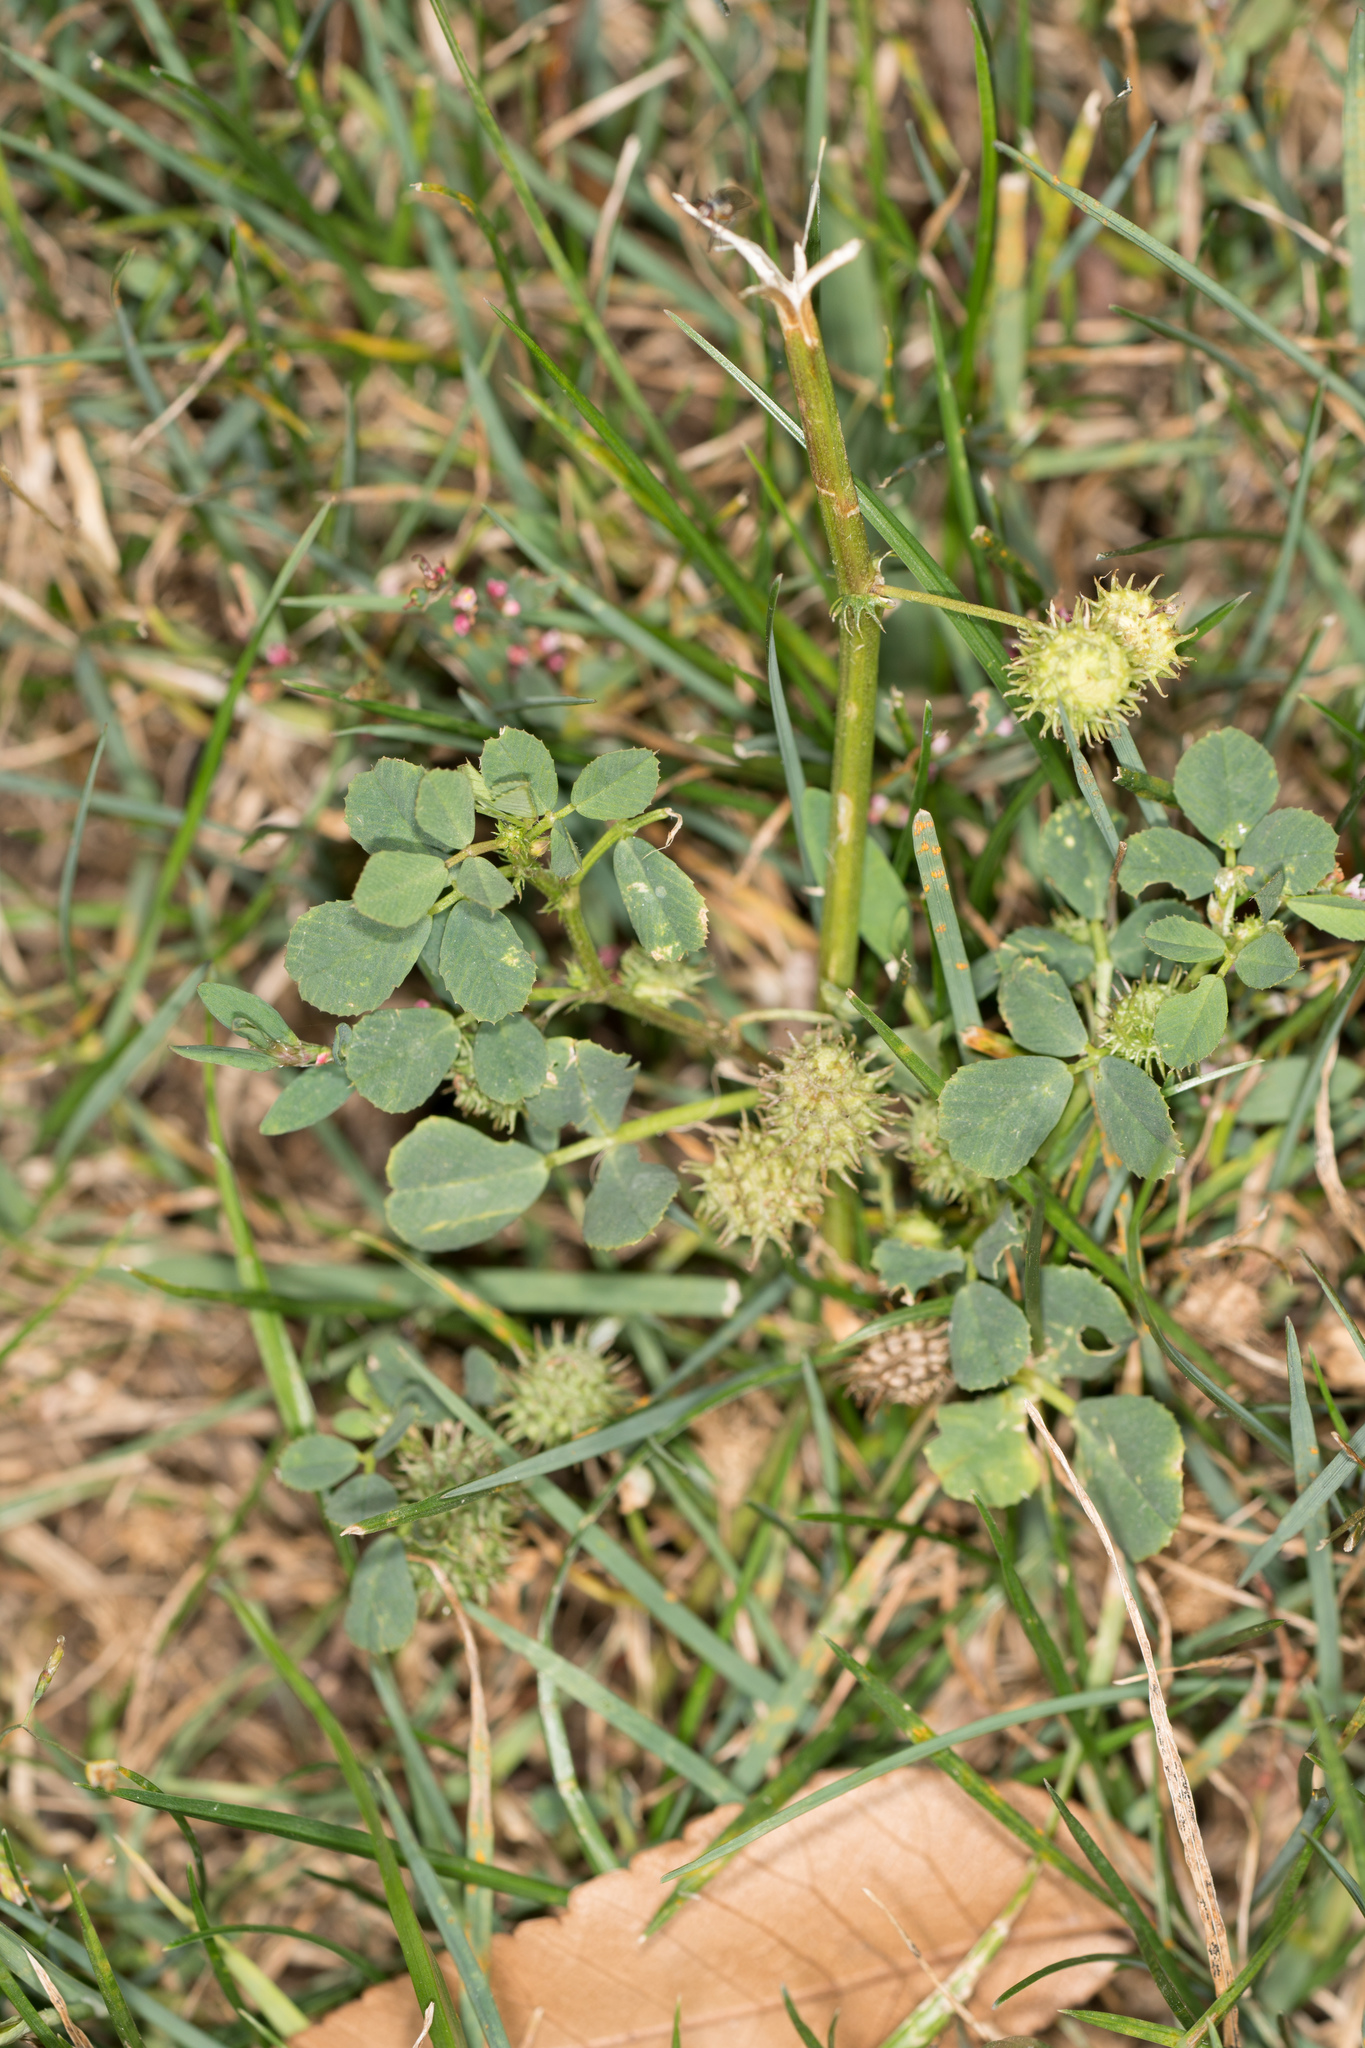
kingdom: Plantae
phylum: Tracheophyta
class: Magnoliopsida
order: Fabales
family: Fabaceae
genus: Medicago
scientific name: Medicago polymorpha
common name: Burclover
